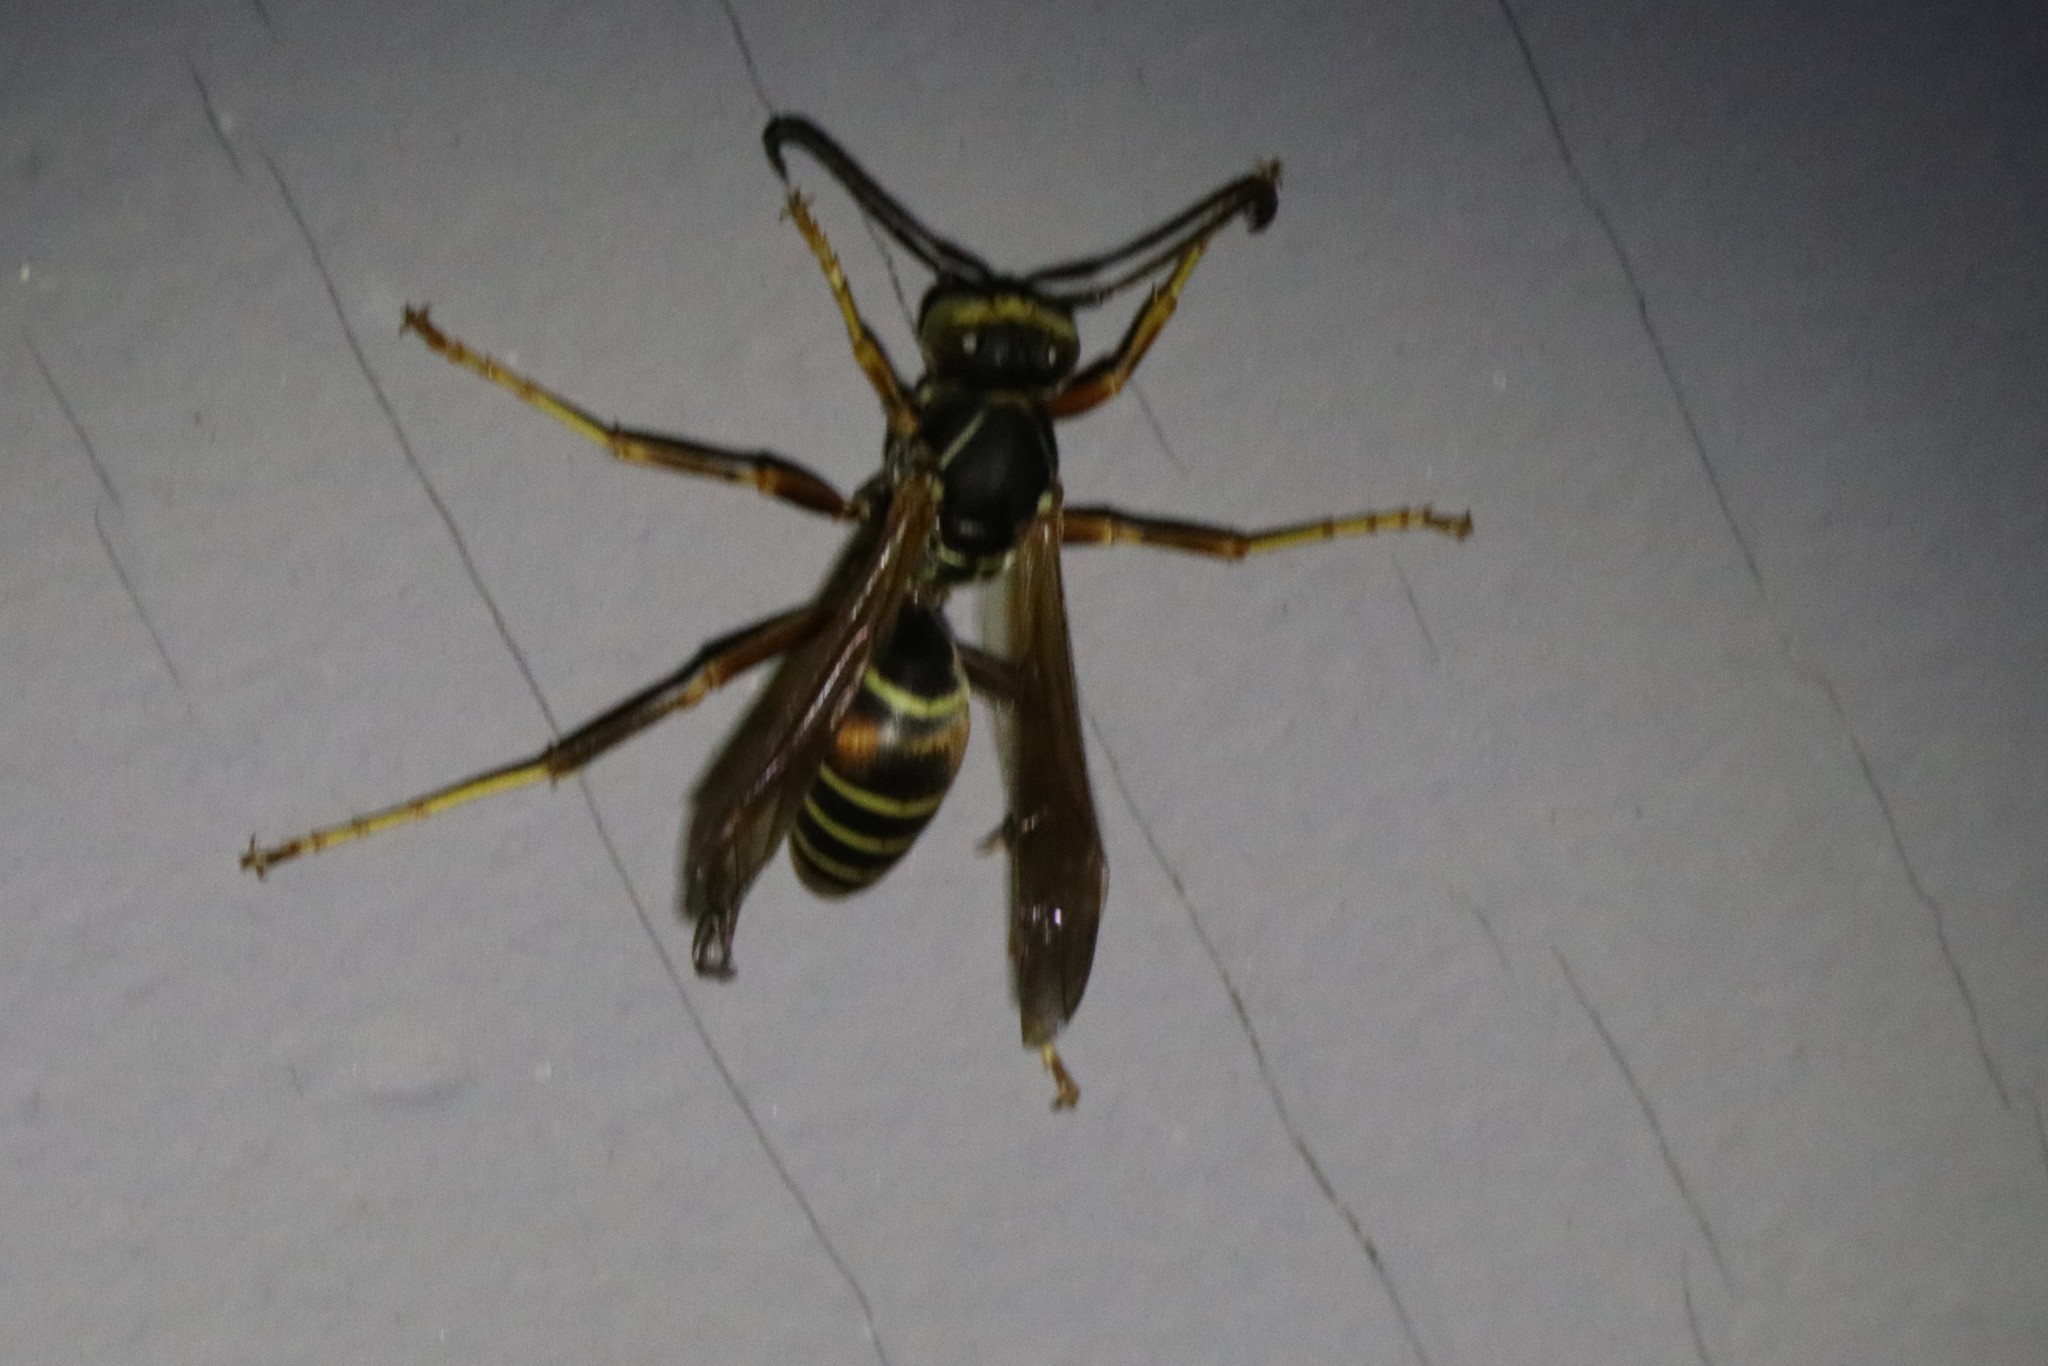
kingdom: Animalia
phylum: Arthropoda
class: Insecta
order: Hymenoptera
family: Eumenidae
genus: Polistes
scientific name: Polistes fuscatus
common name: Dark paper wasp
